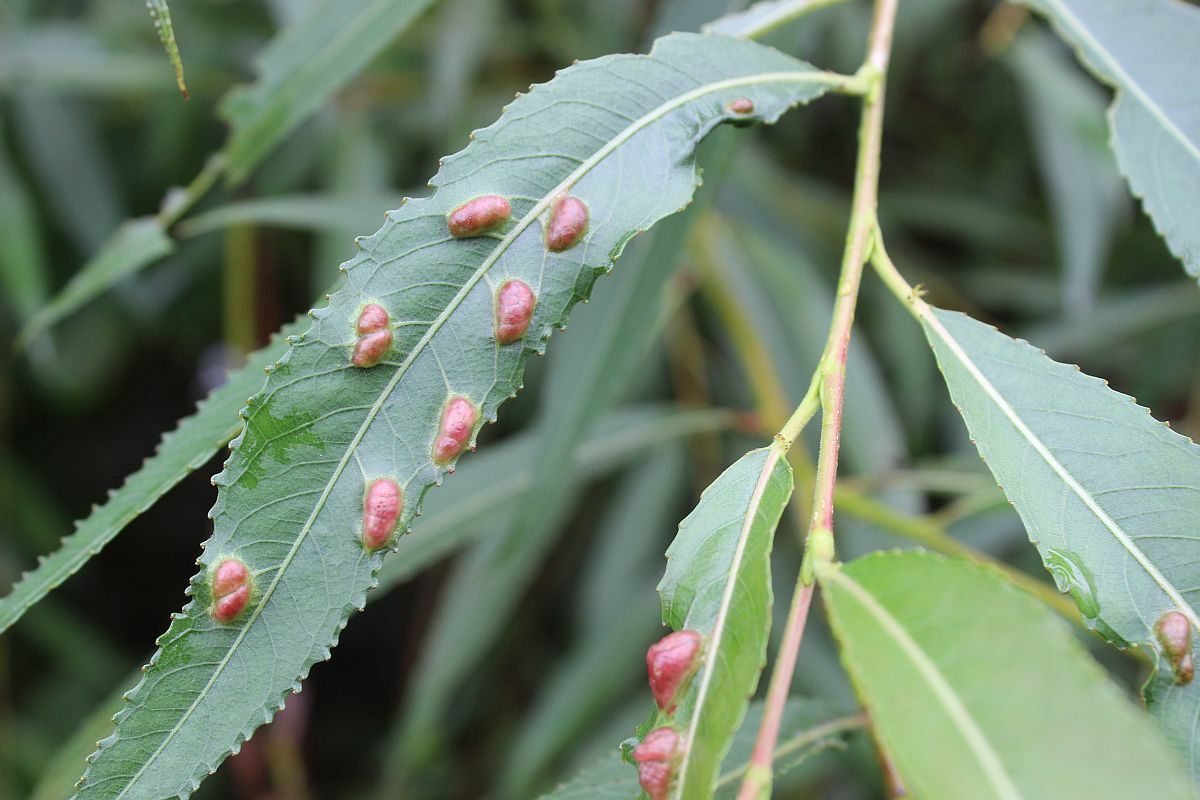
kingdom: Animalia
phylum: Arthropoda
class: Insecta
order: Hymenoptera
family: Tenthredinidae
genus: Pontania
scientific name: Pontania proxima
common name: Common sawfly
